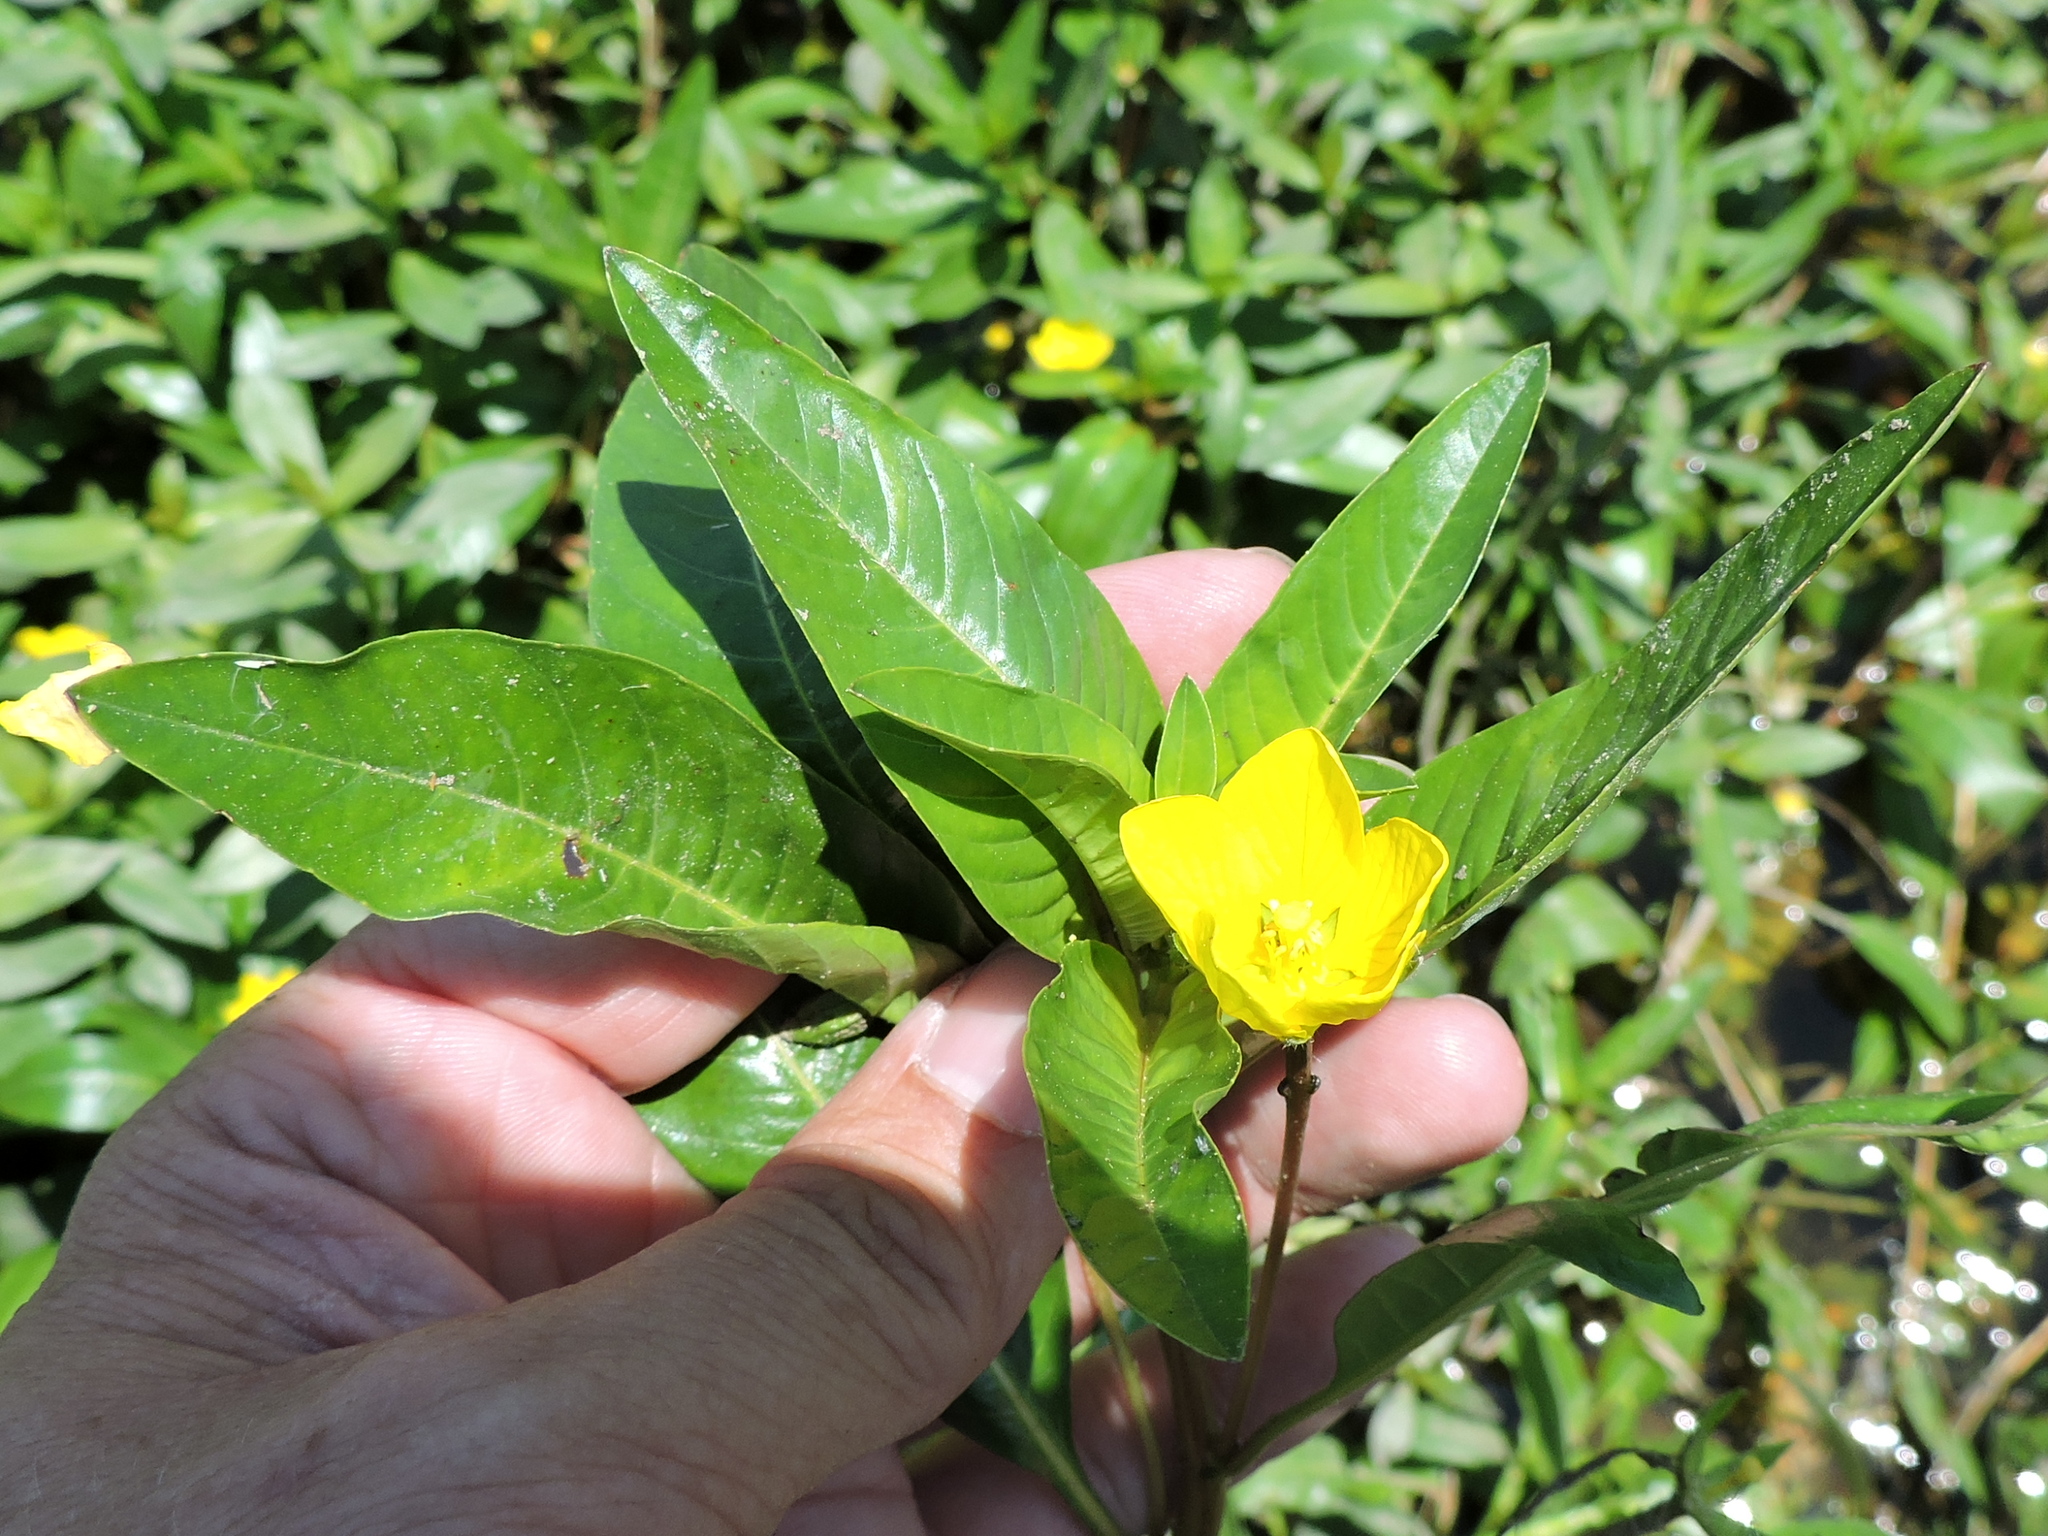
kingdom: Plantae
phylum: Tracheophyta
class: Magnoliopsida
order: Myrtales
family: Onagraceae
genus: Ludwigia
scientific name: Ludwigia peploides
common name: Floating primrose-willow
